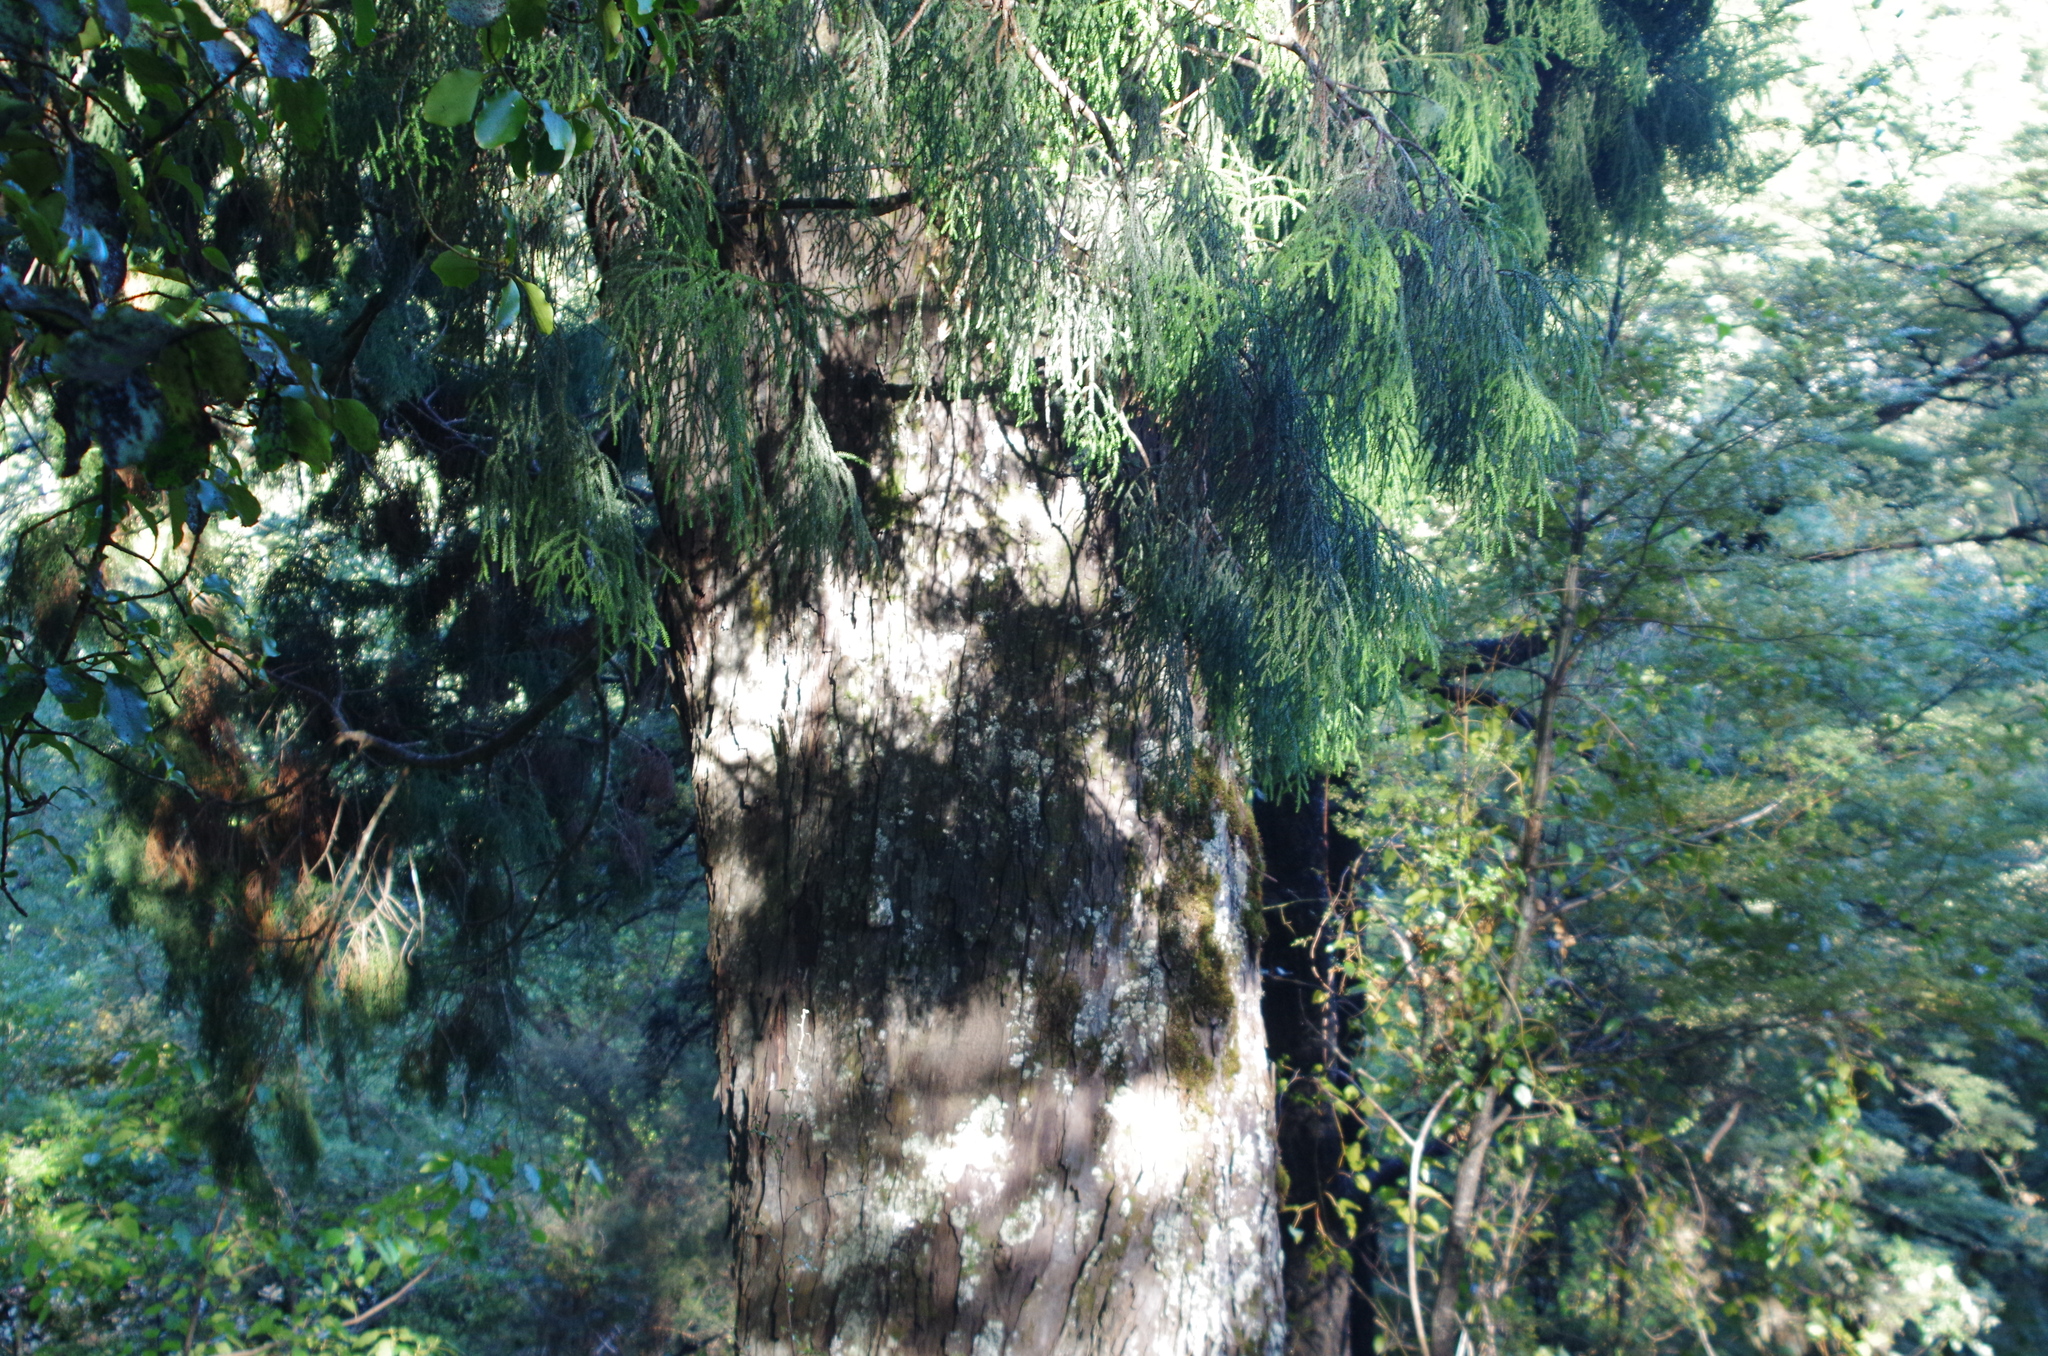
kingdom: Plantae
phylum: Tracheophyta
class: Pinopsida
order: Pinales
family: Podocarpaceae
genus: Dacrydium
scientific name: Dacrydium cupressinum
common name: Red pine
